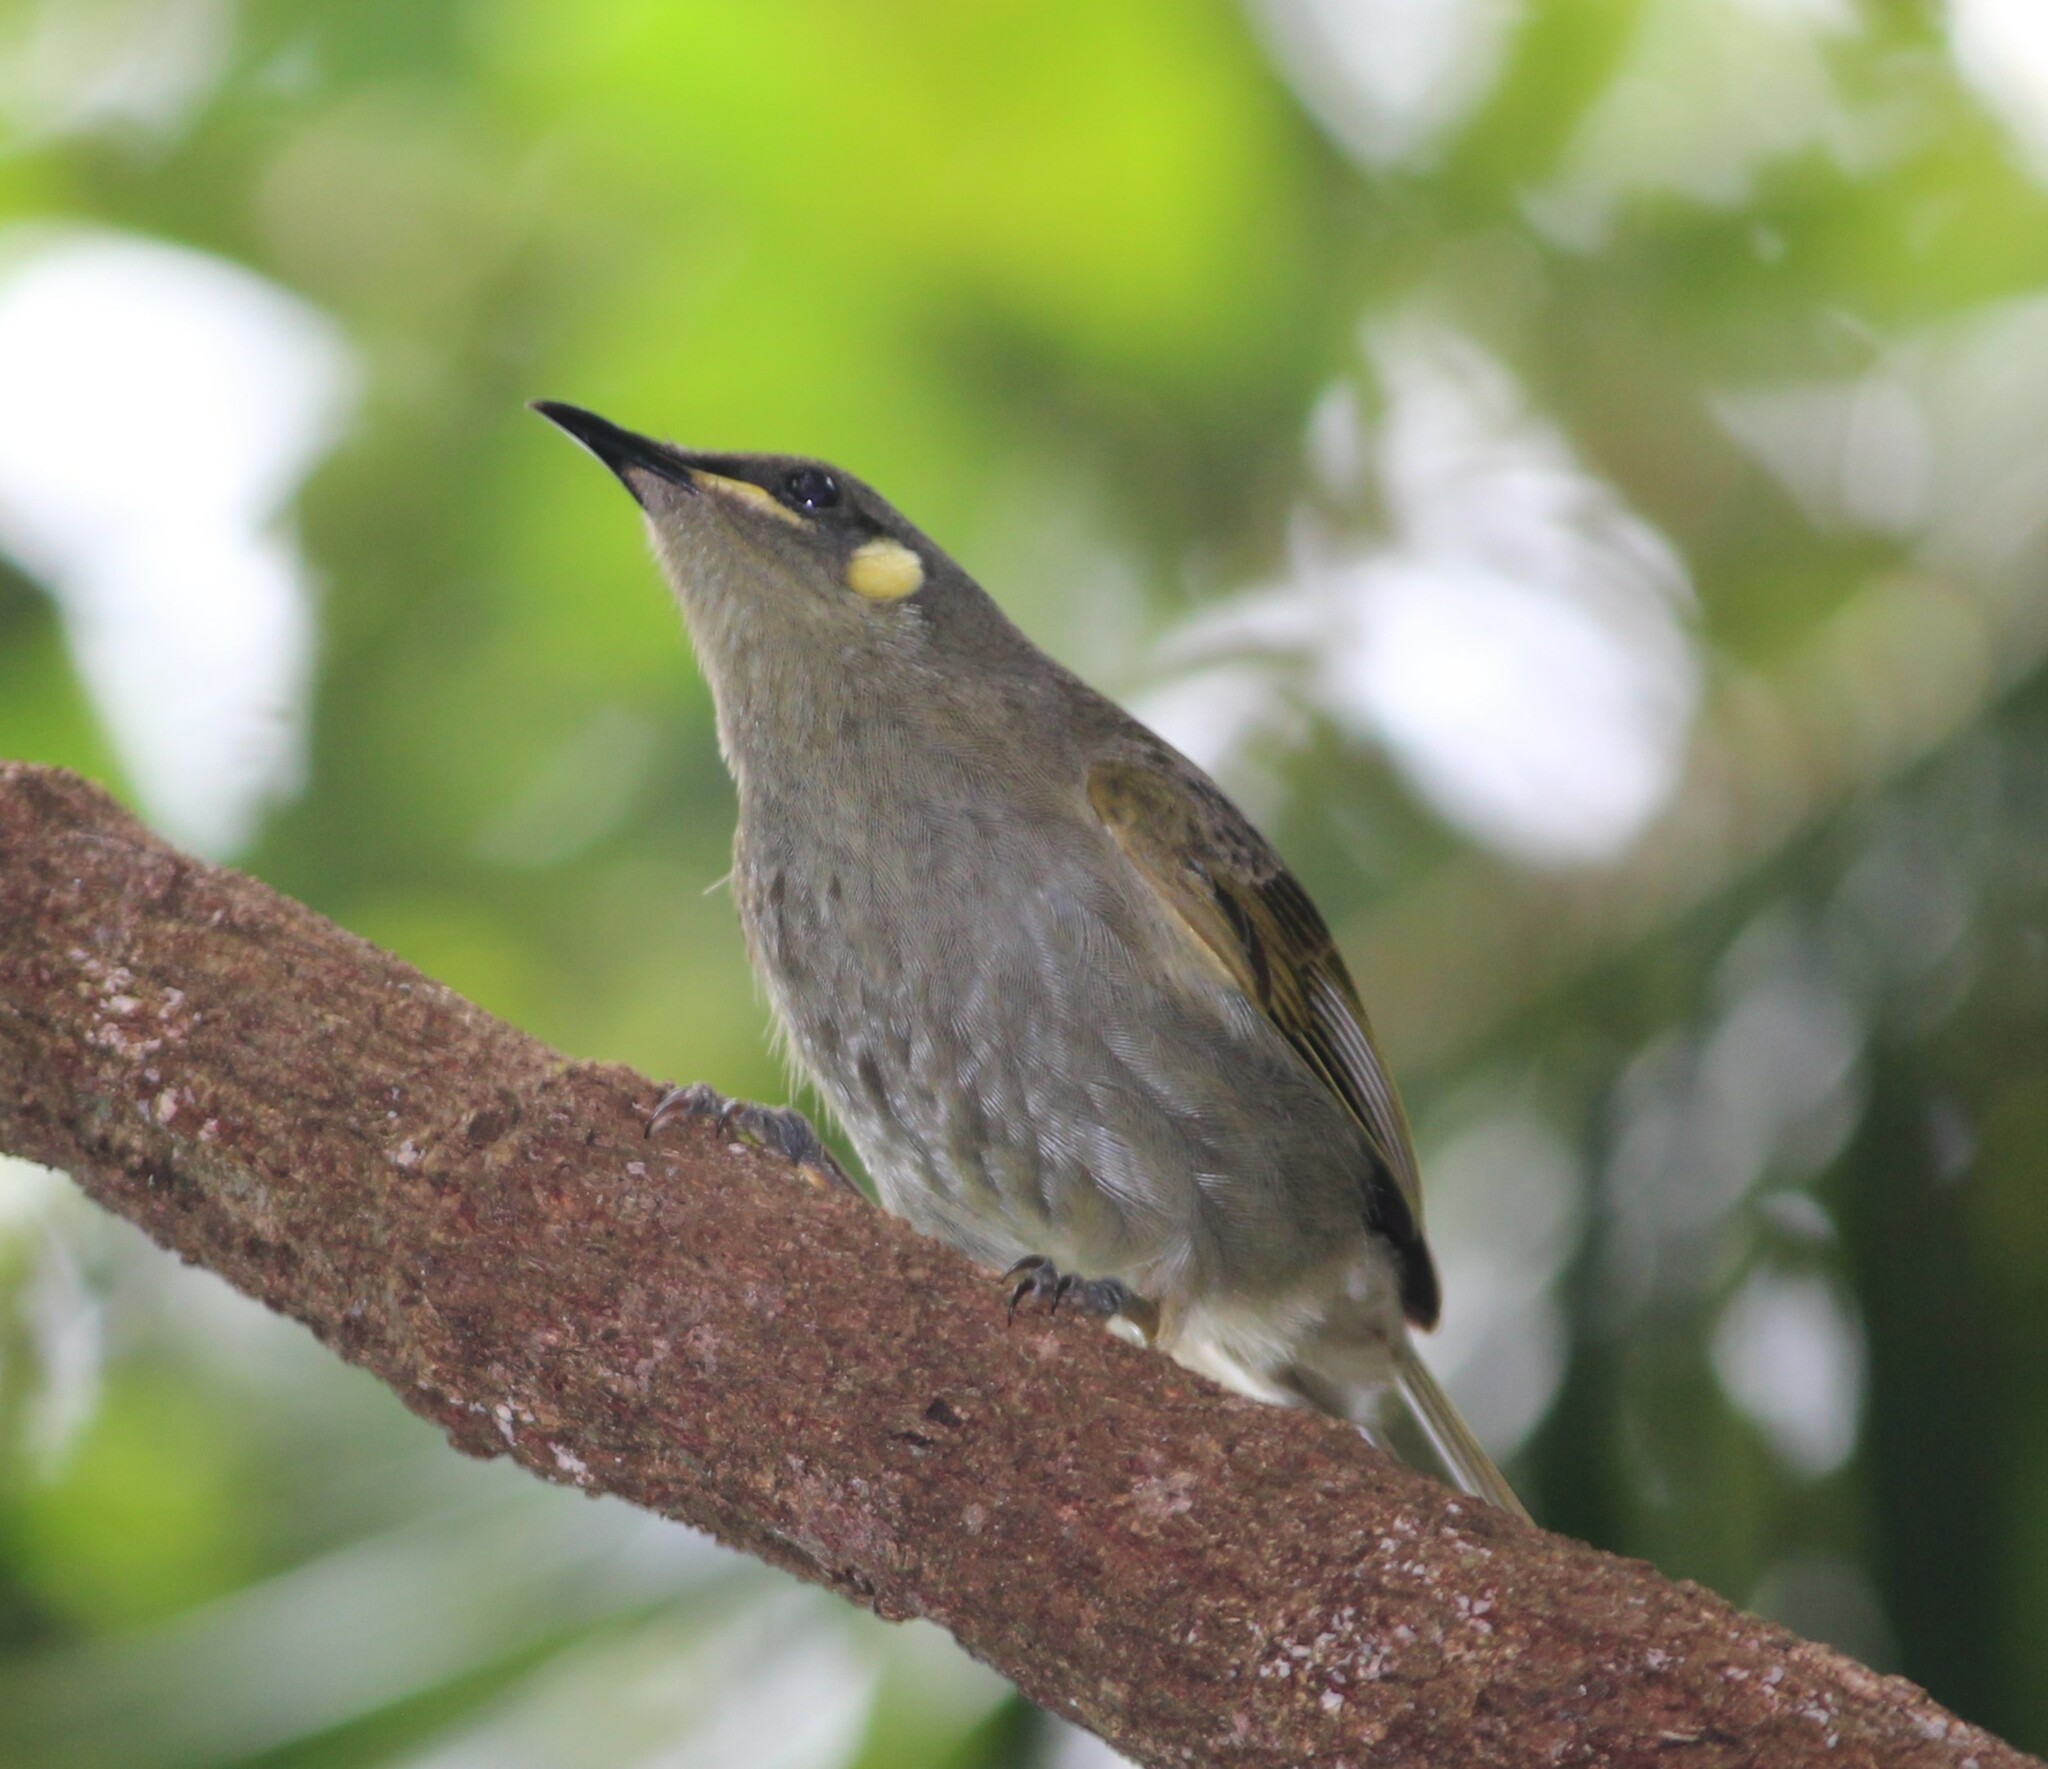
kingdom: Animalia
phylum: Chordata
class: Aves
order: Passeriformes
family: Meliphagidae
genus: Meliphaga
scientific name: Meliphaga notata
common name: Yellow-spotted honeyeater
